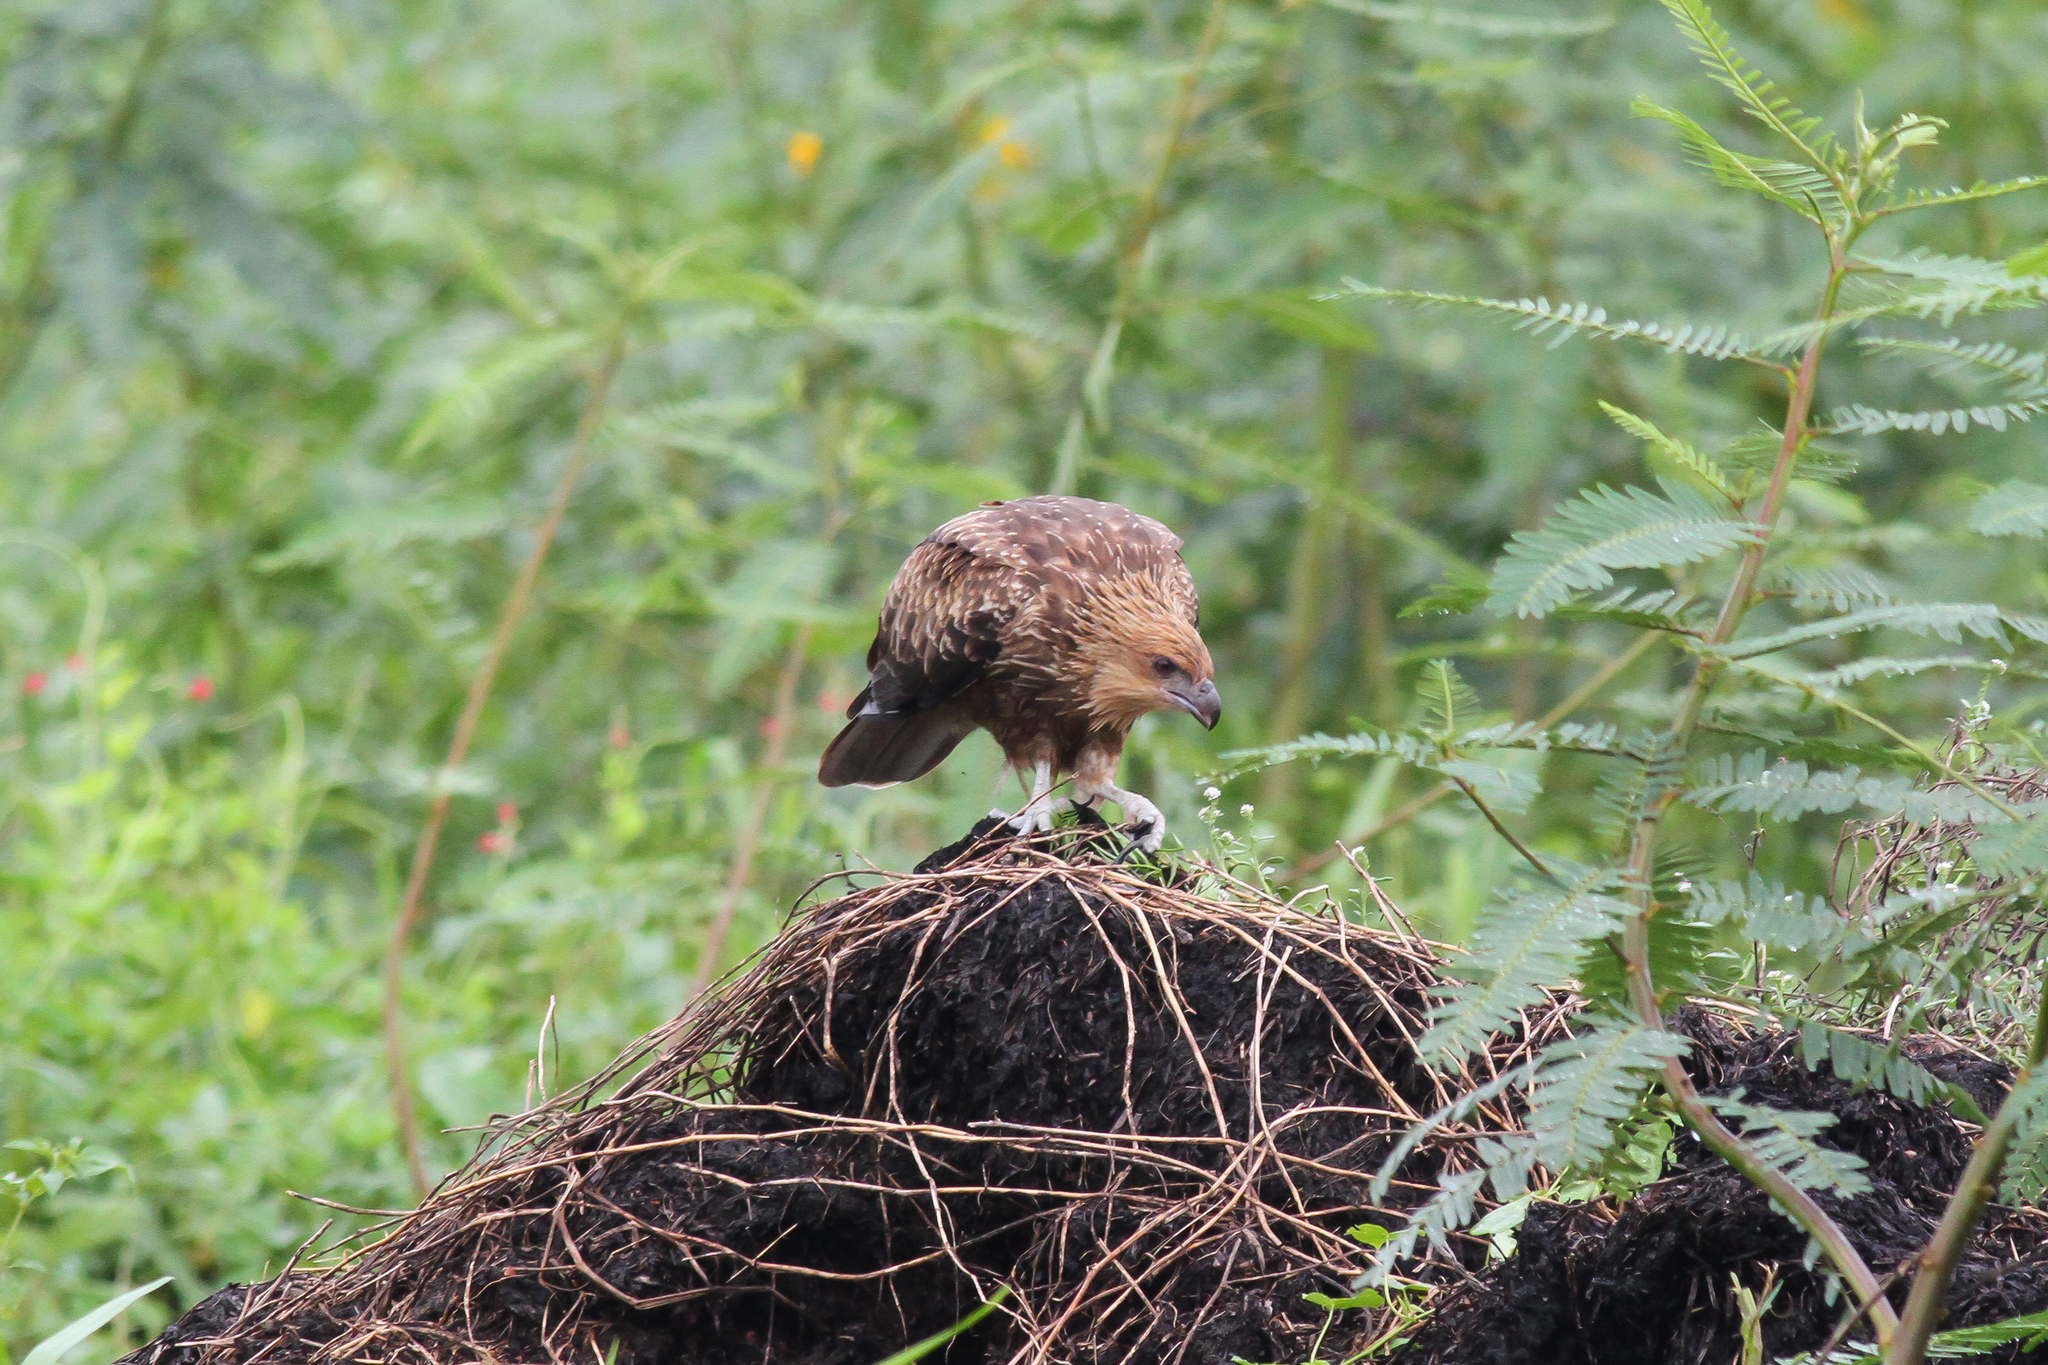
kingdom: Animalia
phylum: Chordata
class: Aves
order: Accipitriformes
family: Accipitridae
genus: Haliastur
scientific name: Haliastur sphenurus
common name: Whistling kite
